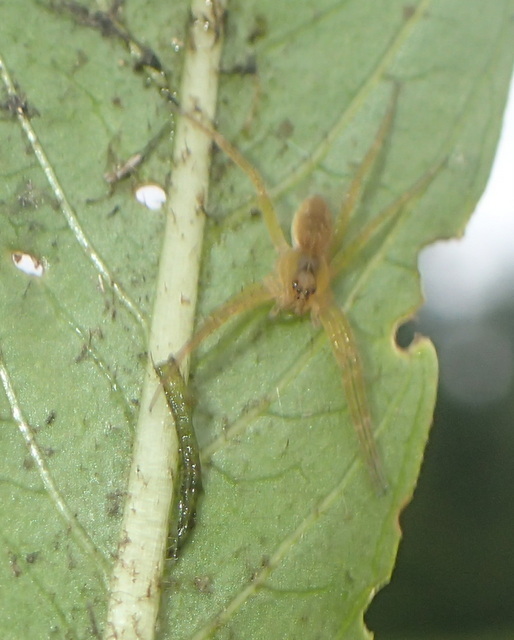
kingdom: Animalia
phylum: Arthropoda
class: Arachnida
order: Araneae
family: Pisauridae
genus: Dolomedes
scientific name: Dolomedes triton
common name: Six-spotted fishing spider
